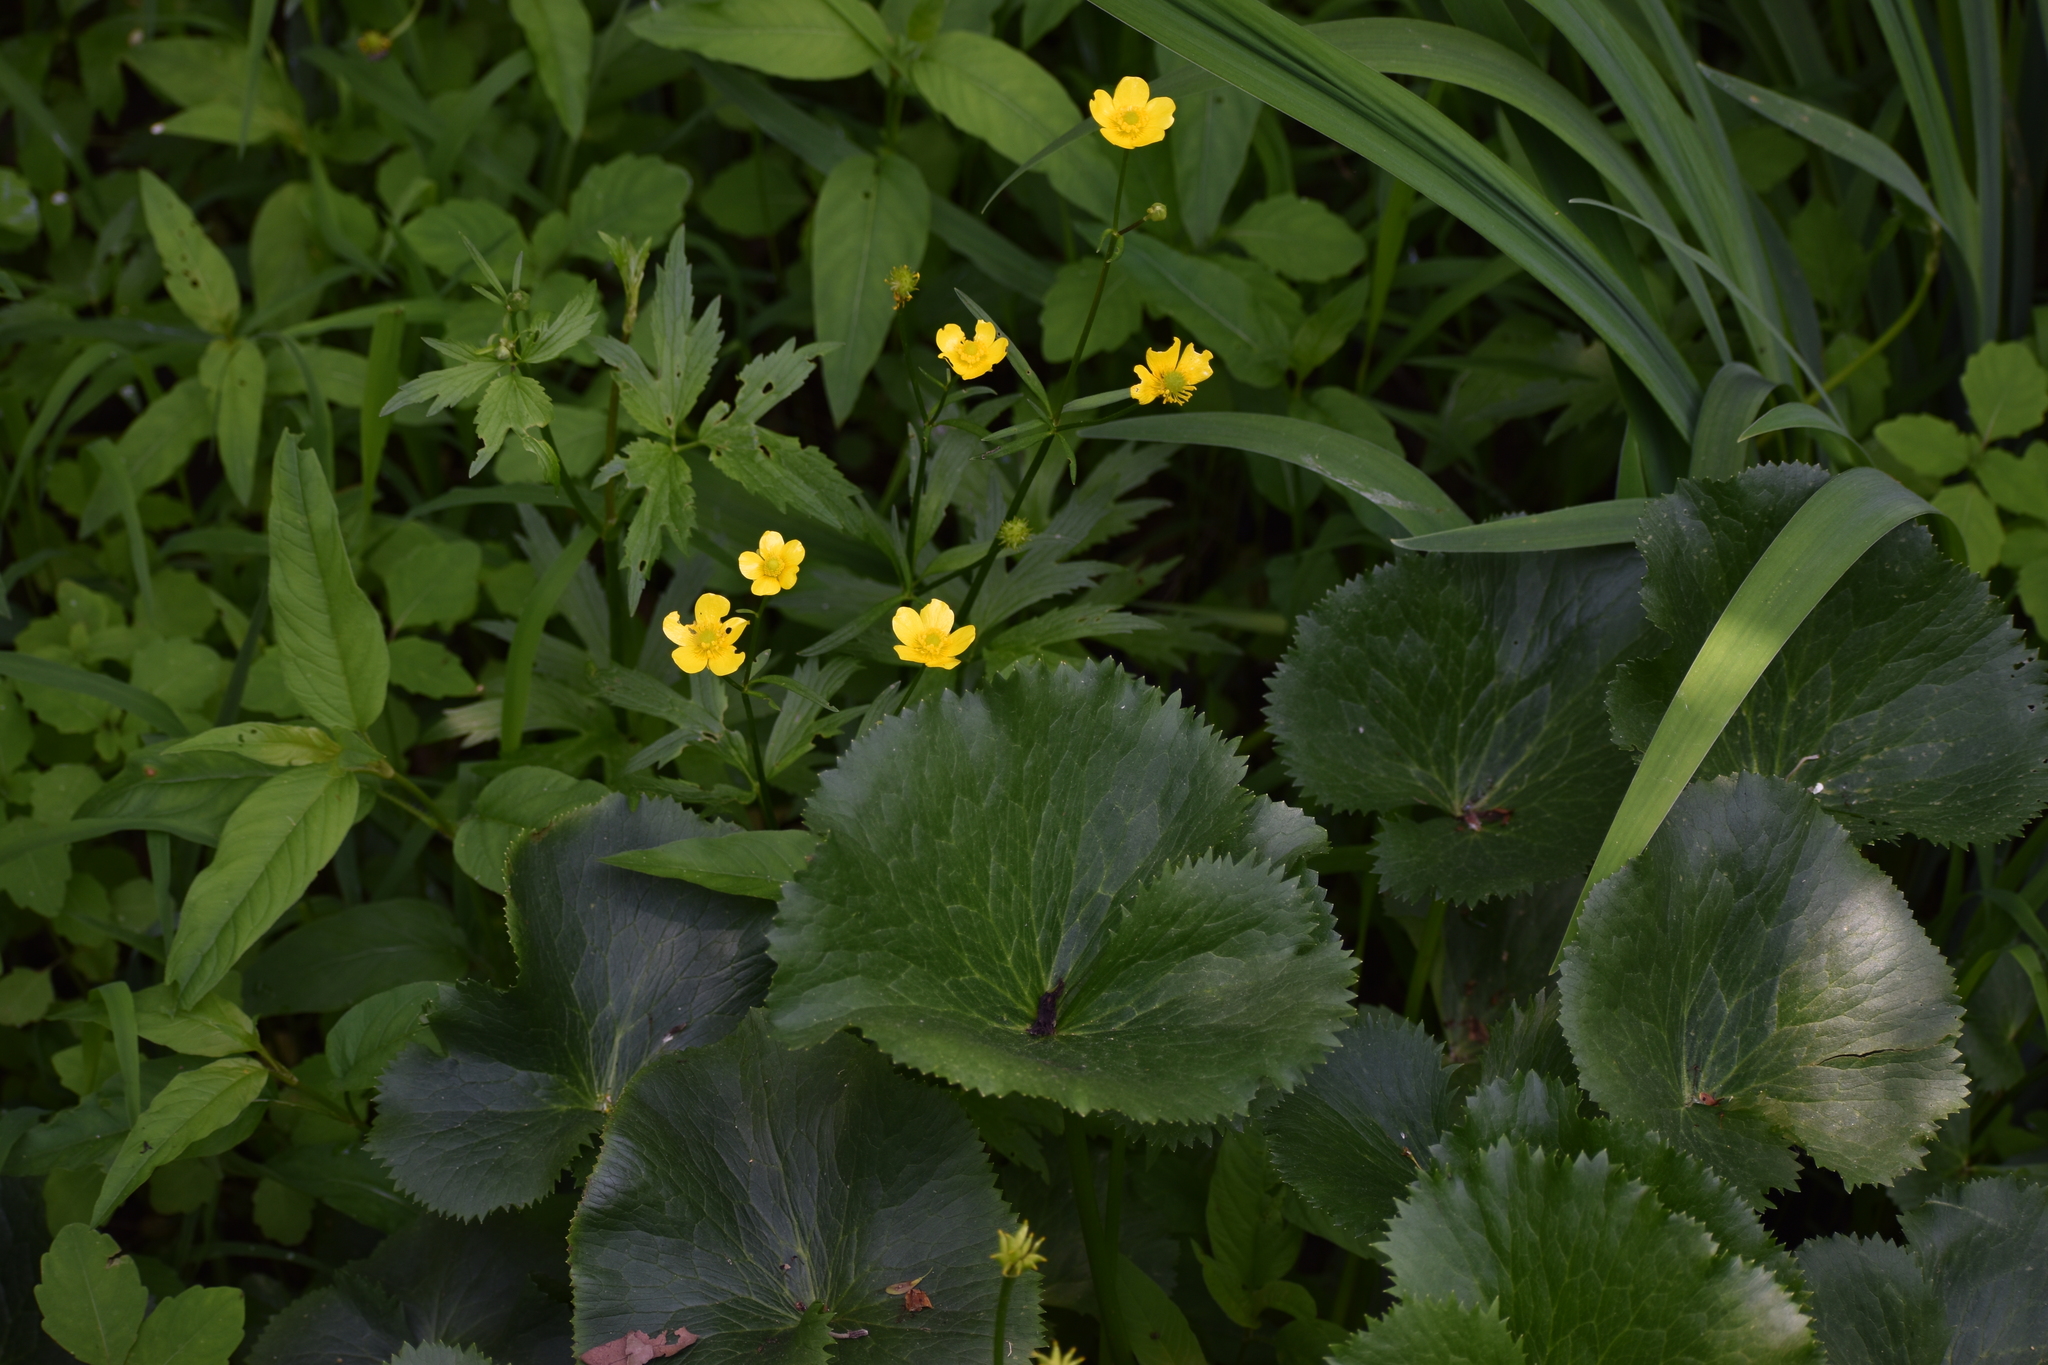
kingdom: Plantae
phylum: Tracheophyta
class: Magnoliopsida
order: Ranunculales
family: Ranunculaceae
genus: Caltha
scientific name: Caltha palustris
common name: Marsh marigold
